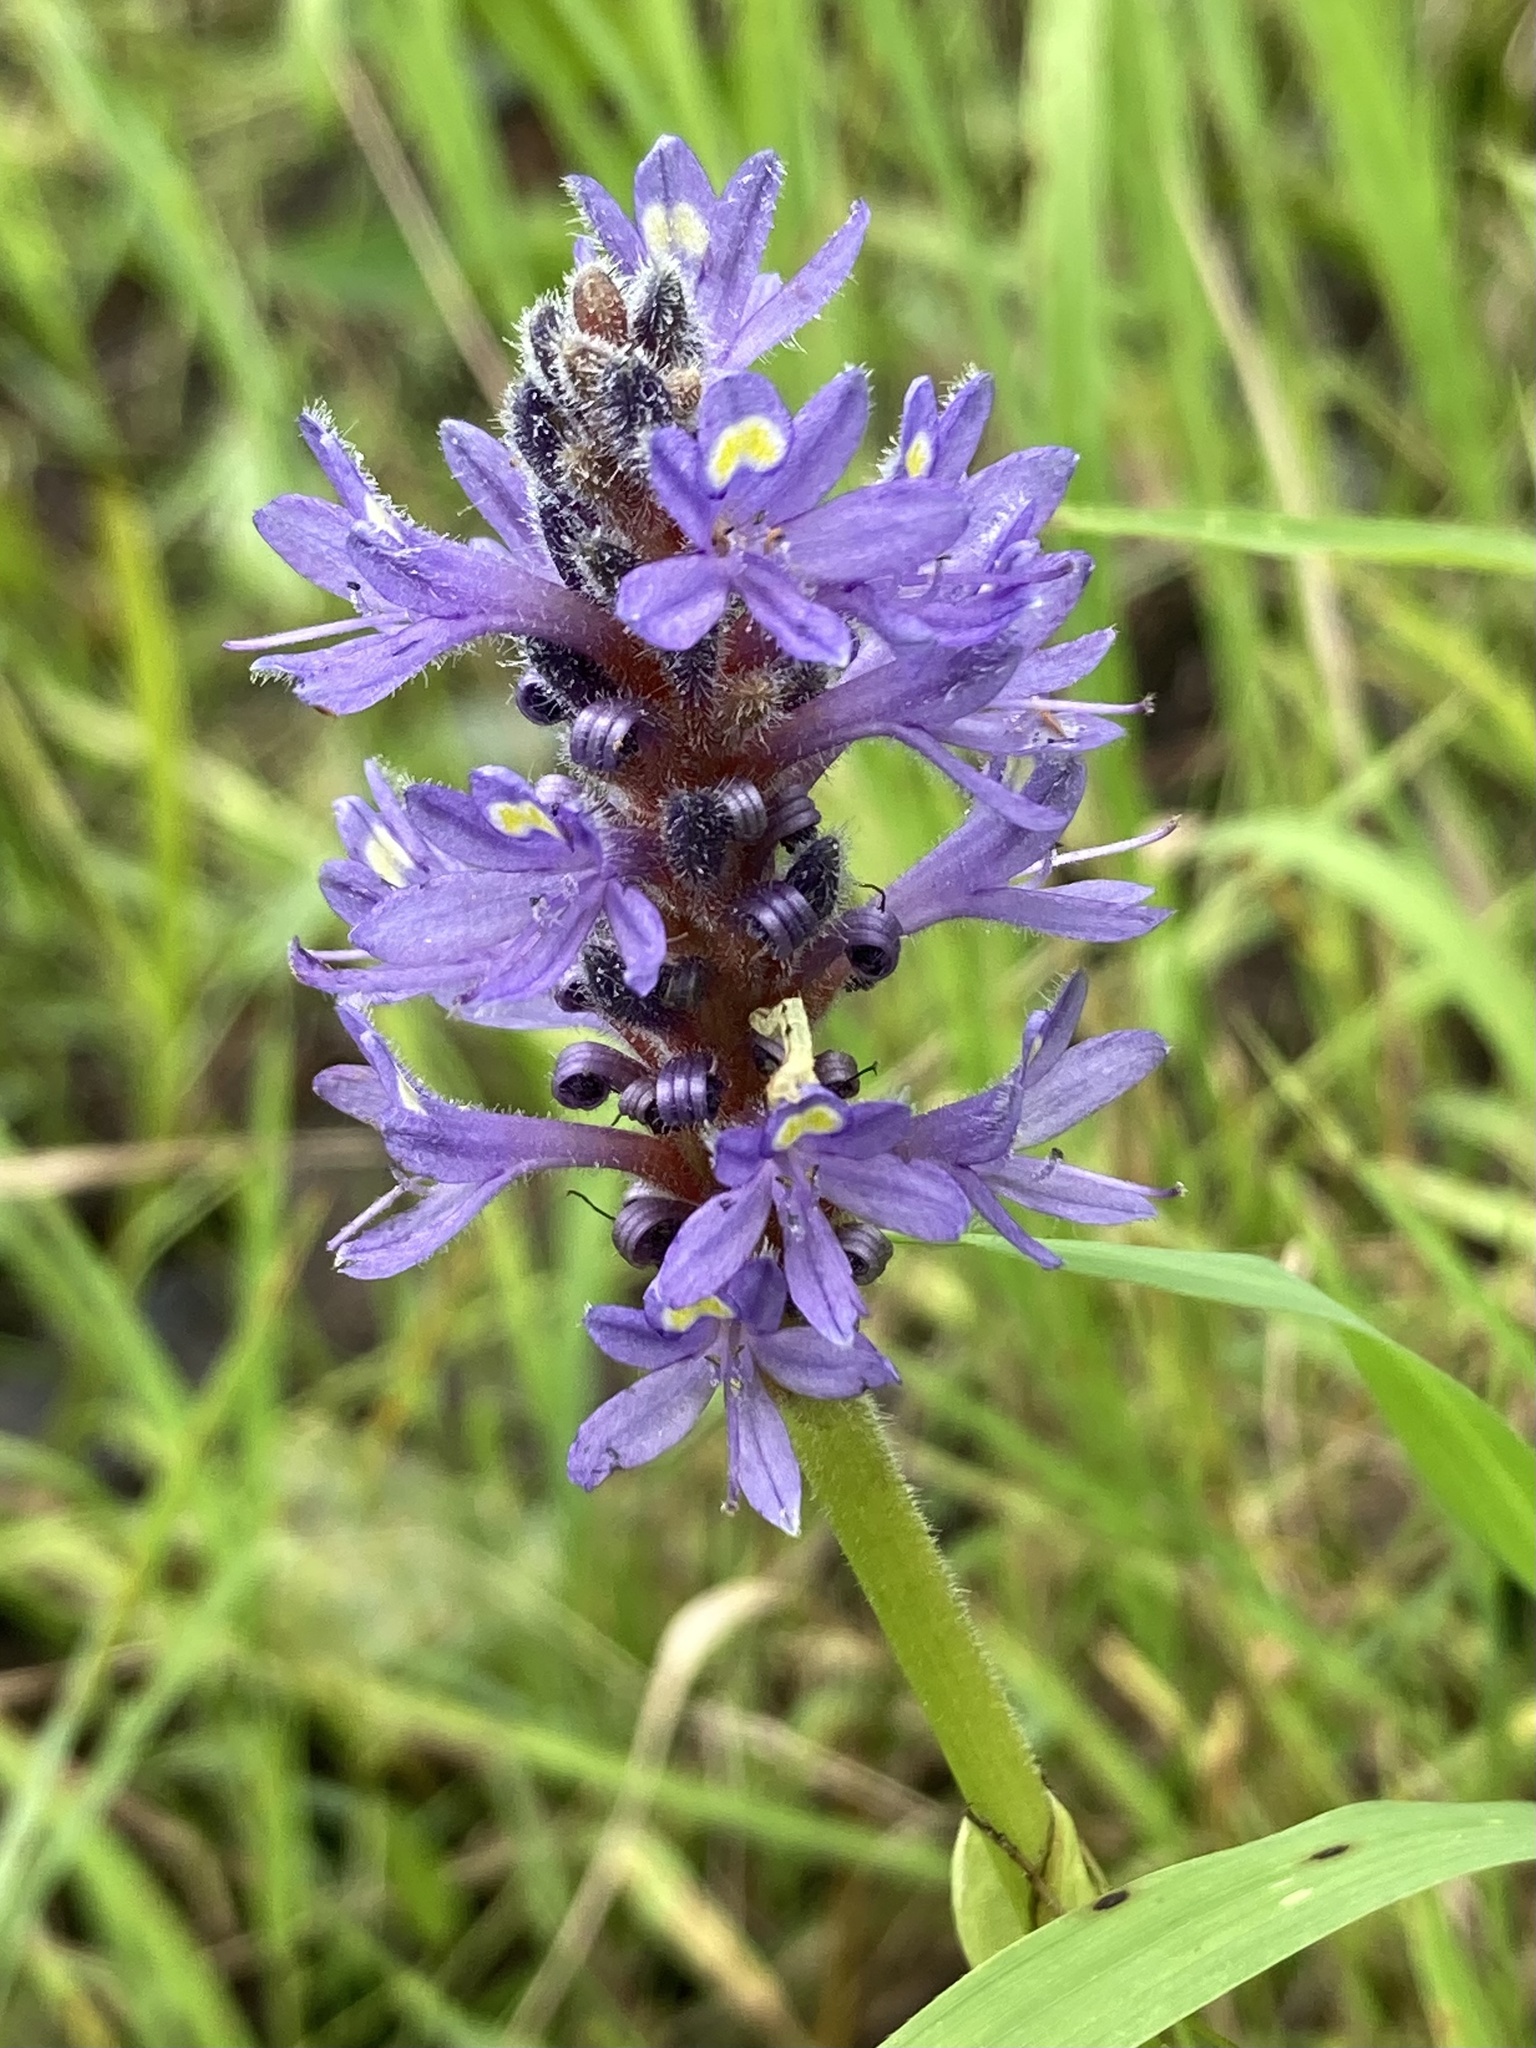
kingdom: Plantae
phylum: Tracheophyta
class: Liliopsida
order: Commelinales
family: Pontederiaceae
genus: Pontederia
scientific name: Pontederia cordata
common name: Pickerelweed
